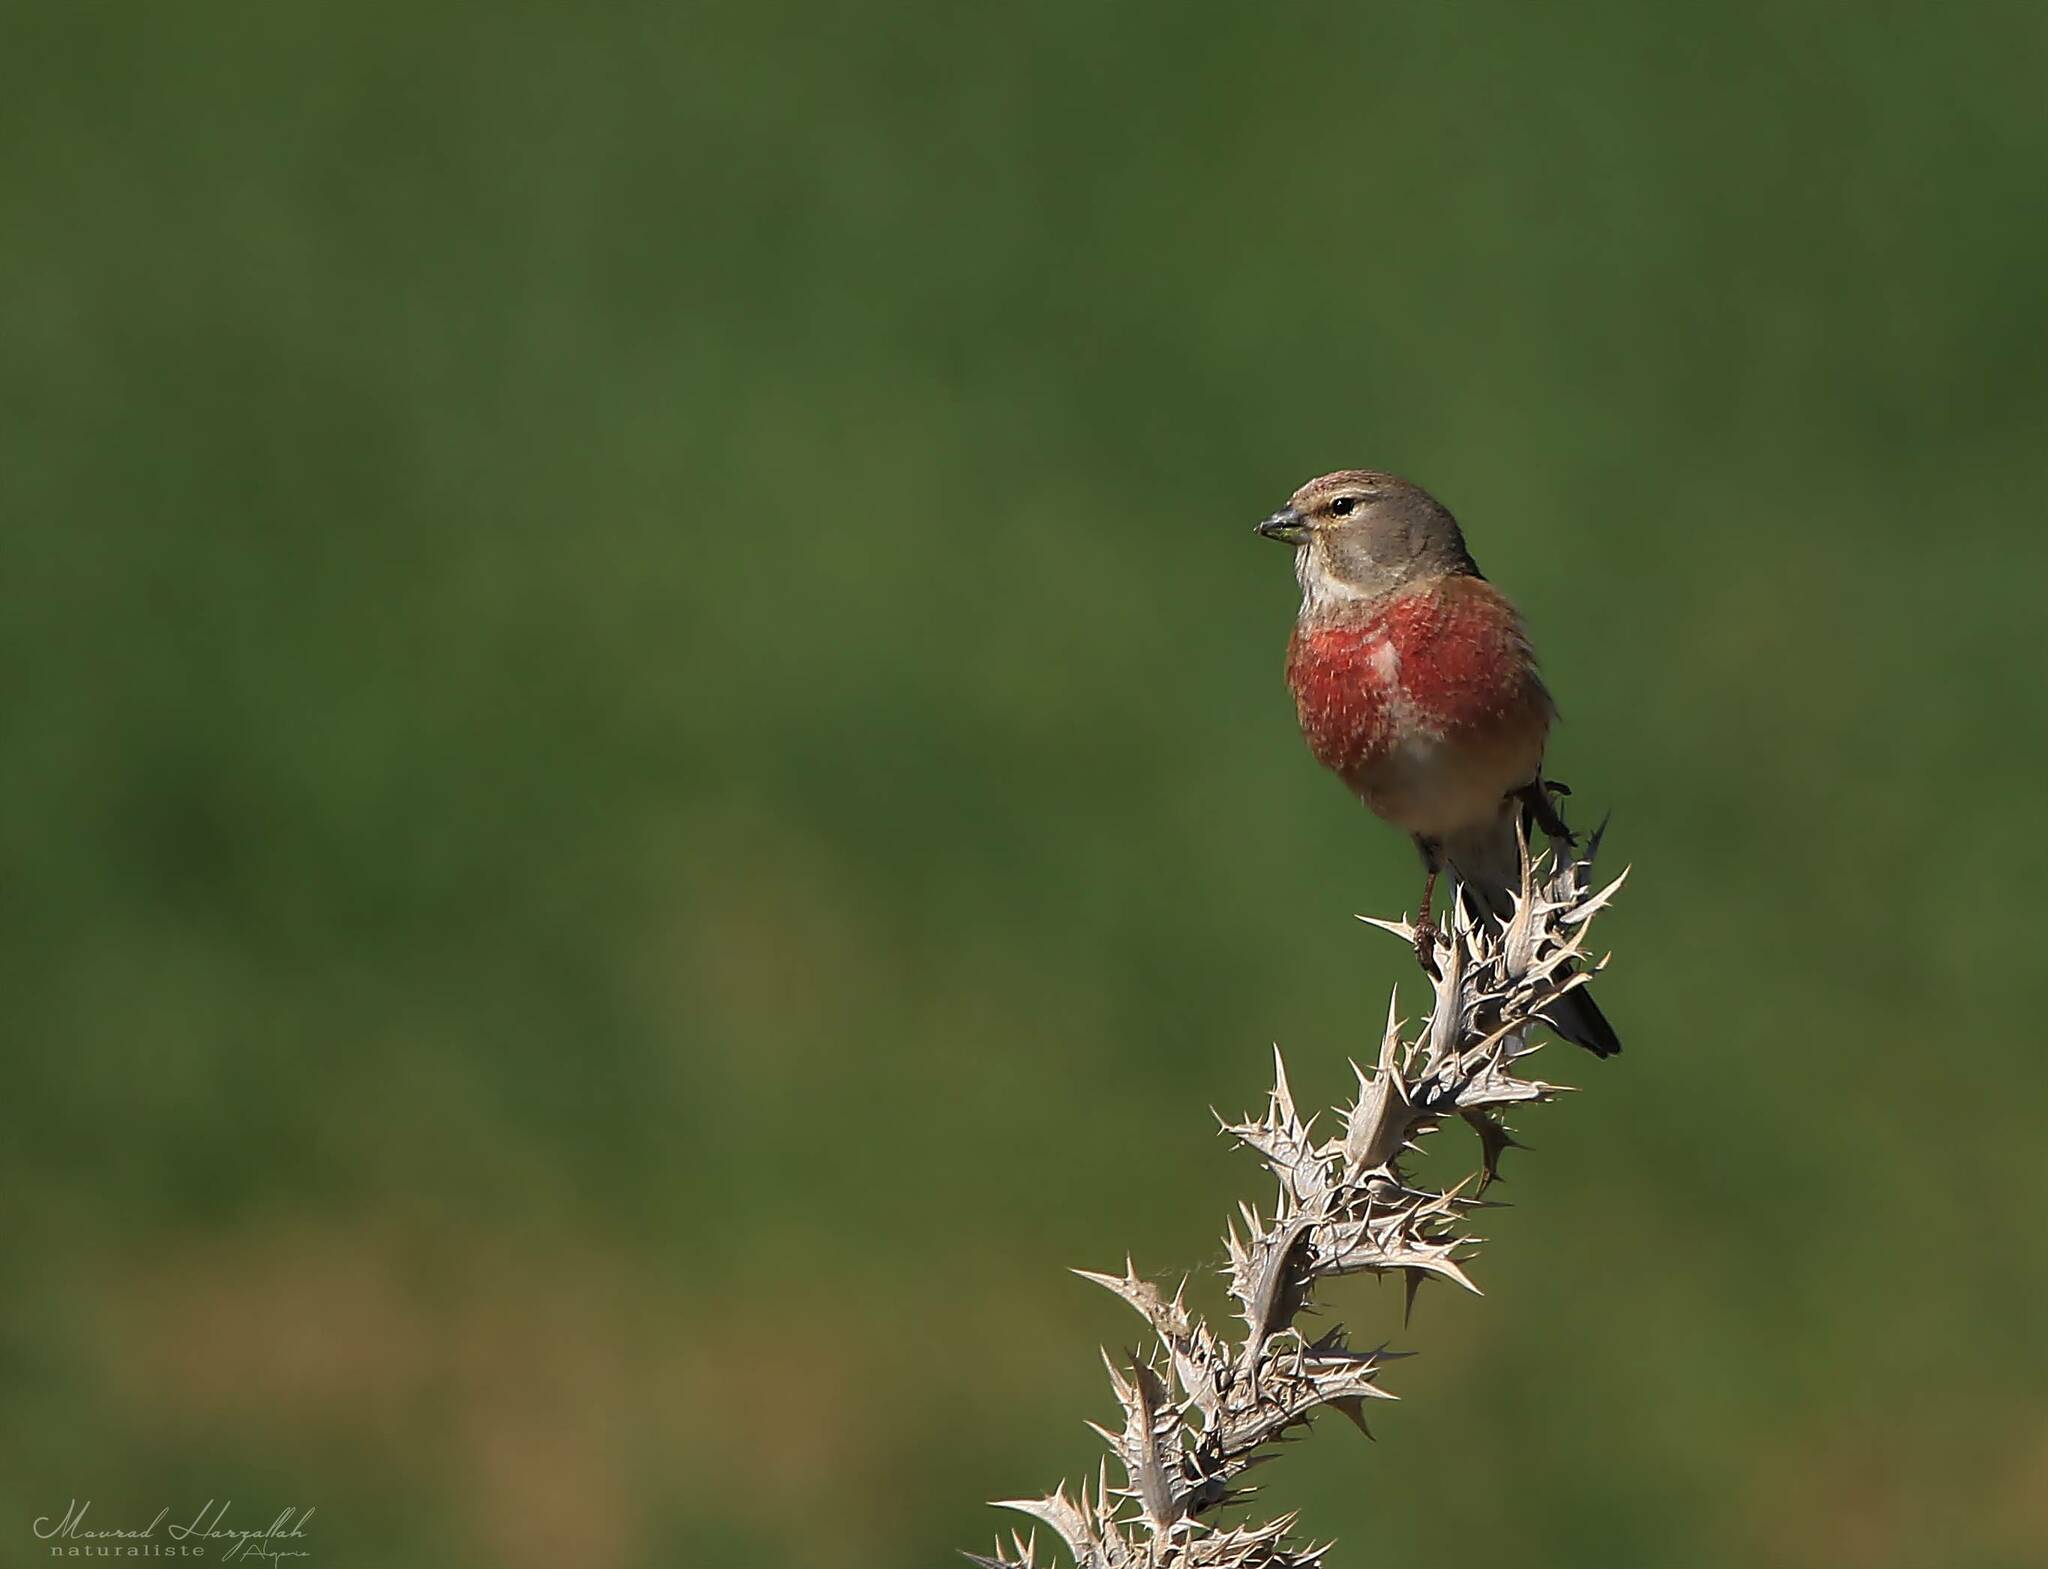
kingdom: Animalia
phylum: Chordata
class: Aves
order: Passeriformes
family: Fringillidae
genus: Linaria
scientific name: Linaria cannabina
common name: Common linnet
